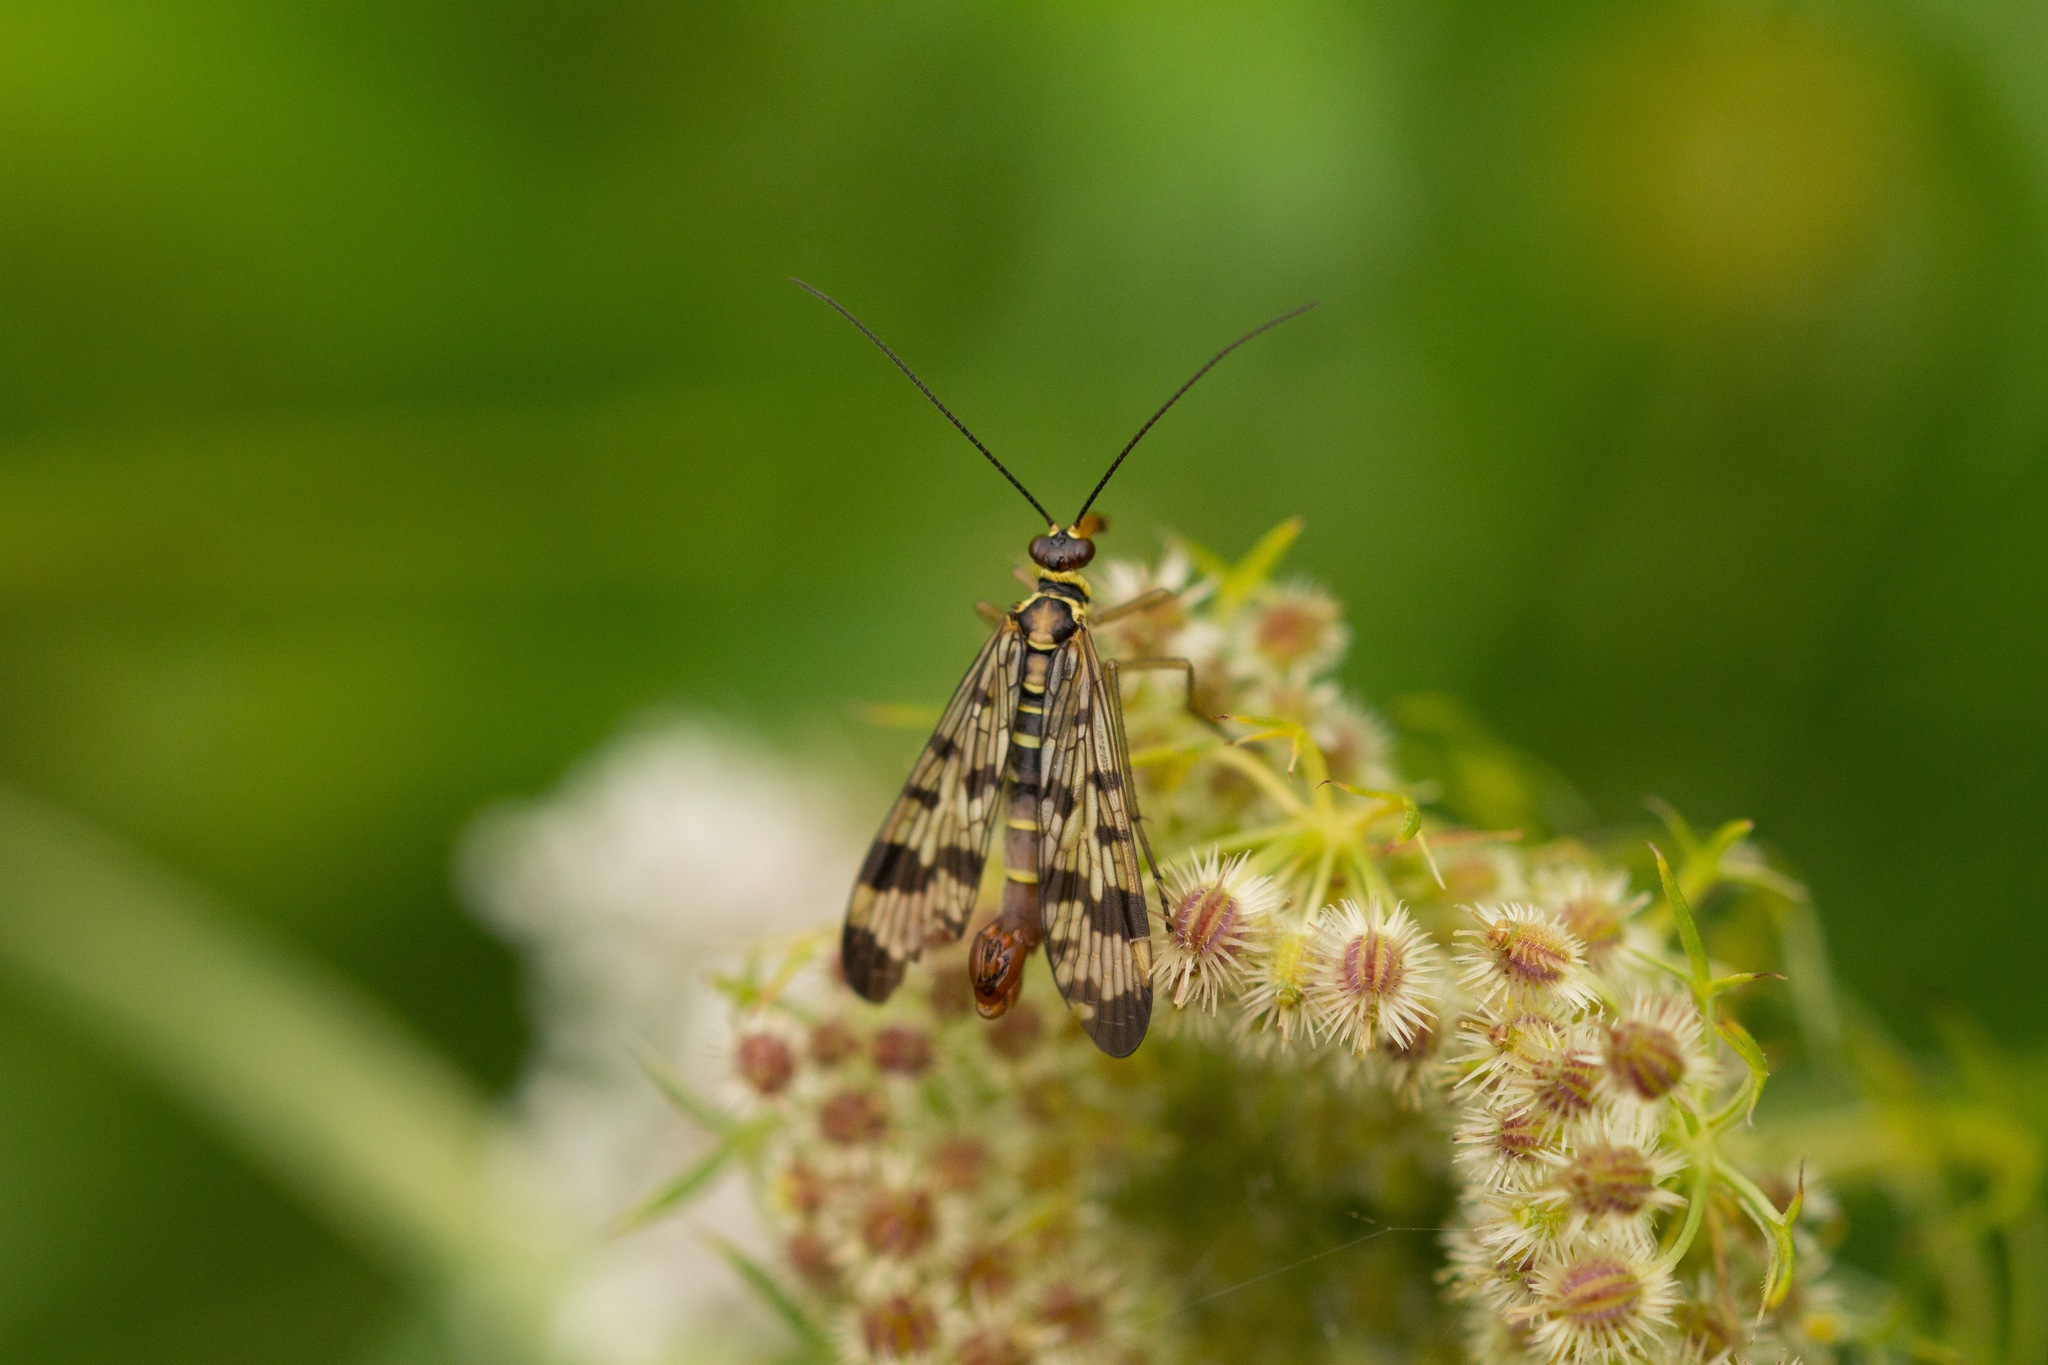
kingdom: Plantae
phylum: Tracheophyta
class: Magnoliopsida
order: Apiales
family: Apiaceae
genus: Daucus
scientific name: Daucus carota
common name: Wild carrot
